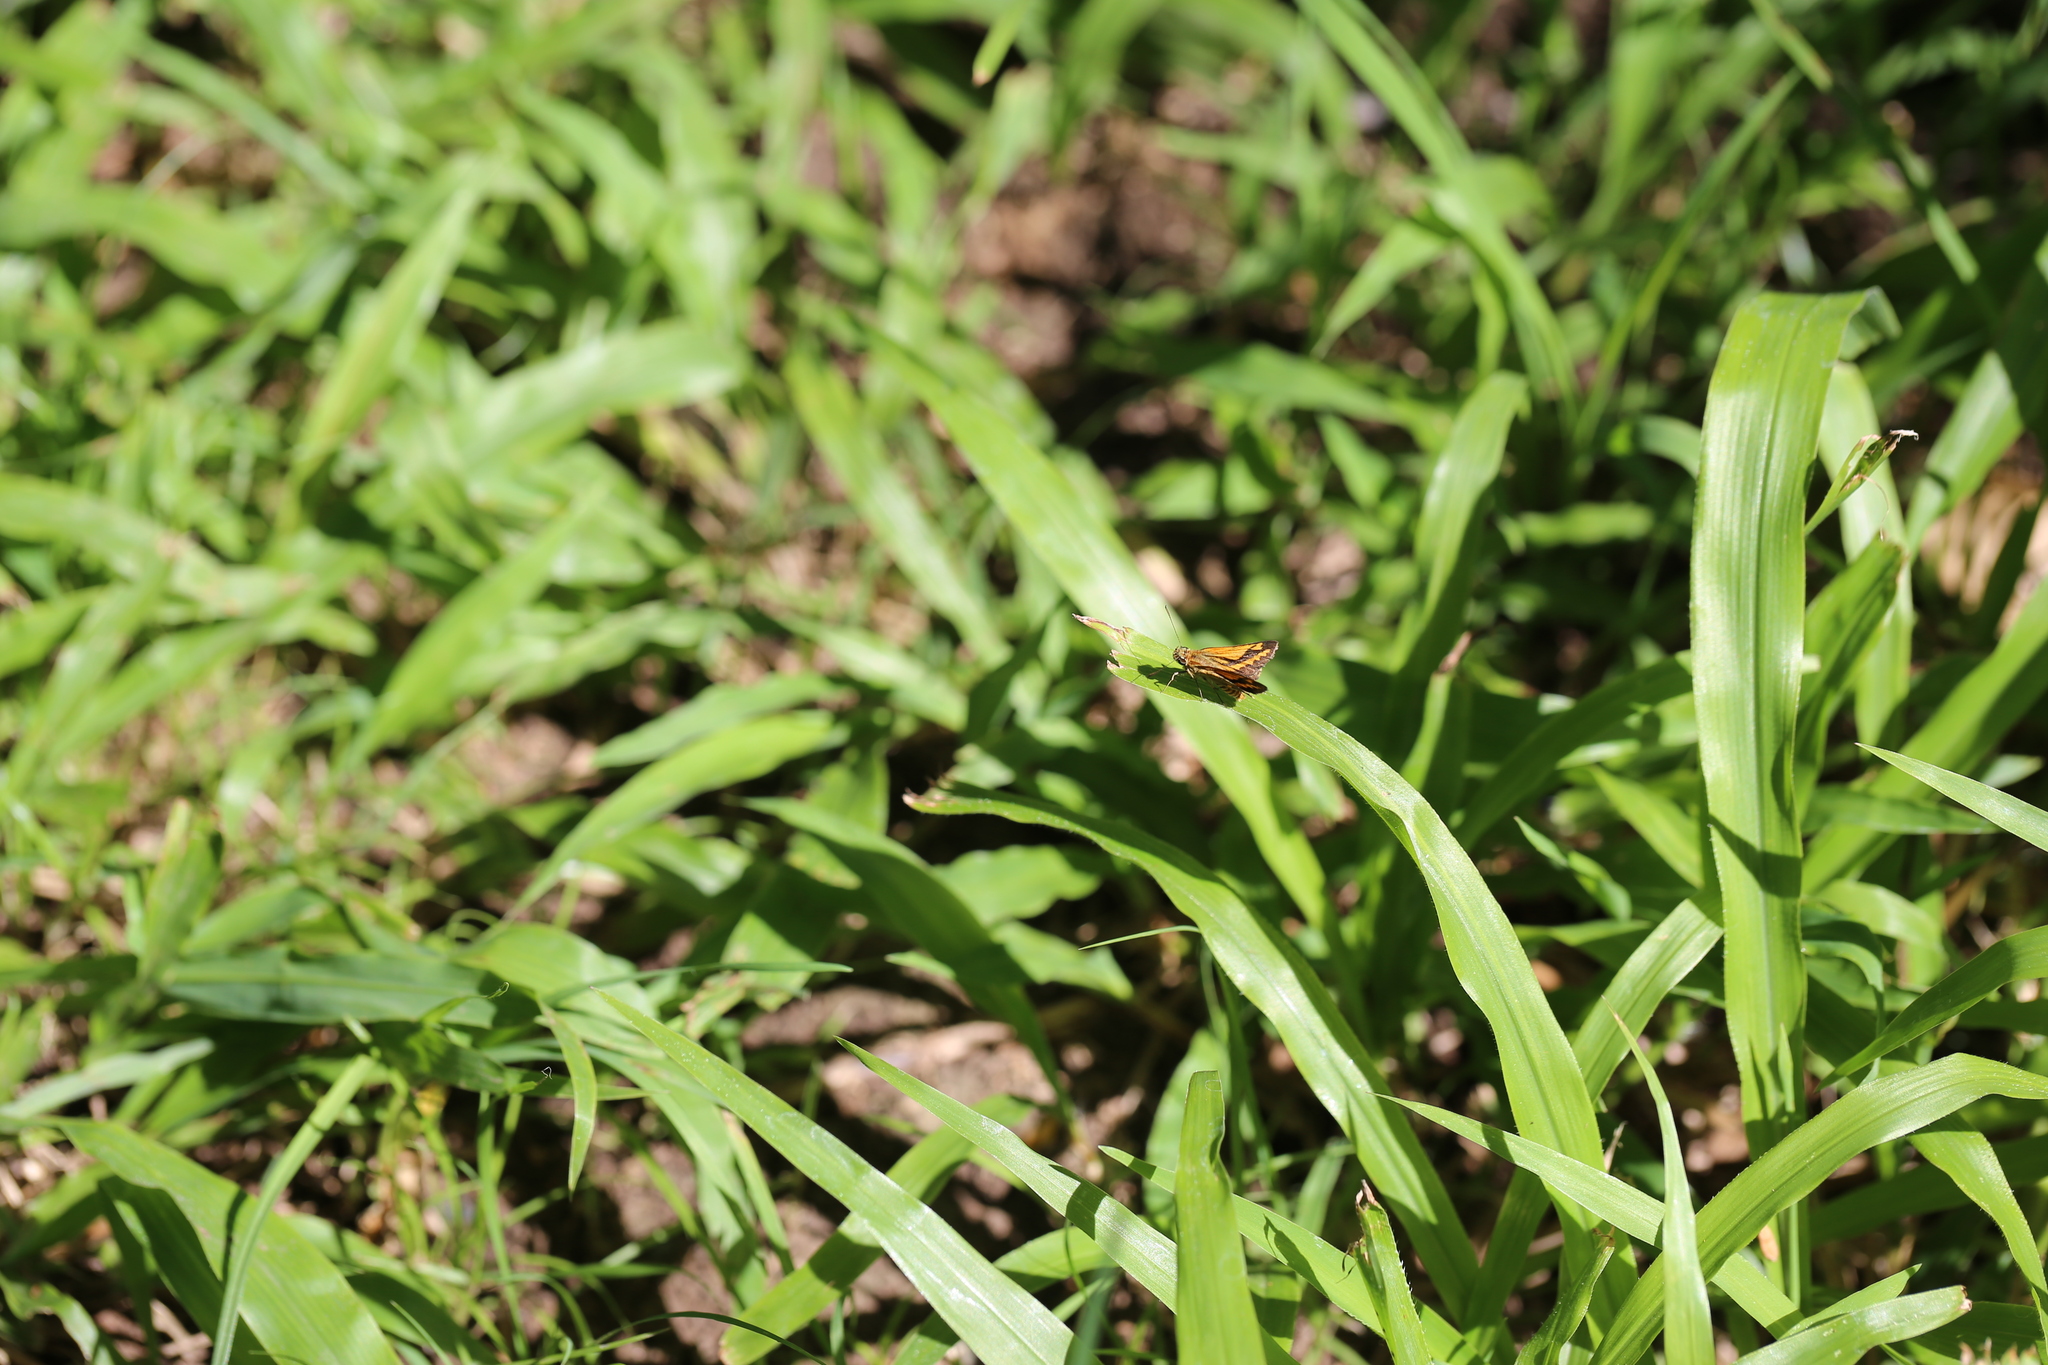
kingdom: Animalia
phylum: Arthropoda
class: Insecta
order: Lepidoptera
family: Hesperiidae
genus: Suniana
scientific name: Suniana sunias
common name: Wide-brand grass-dart
